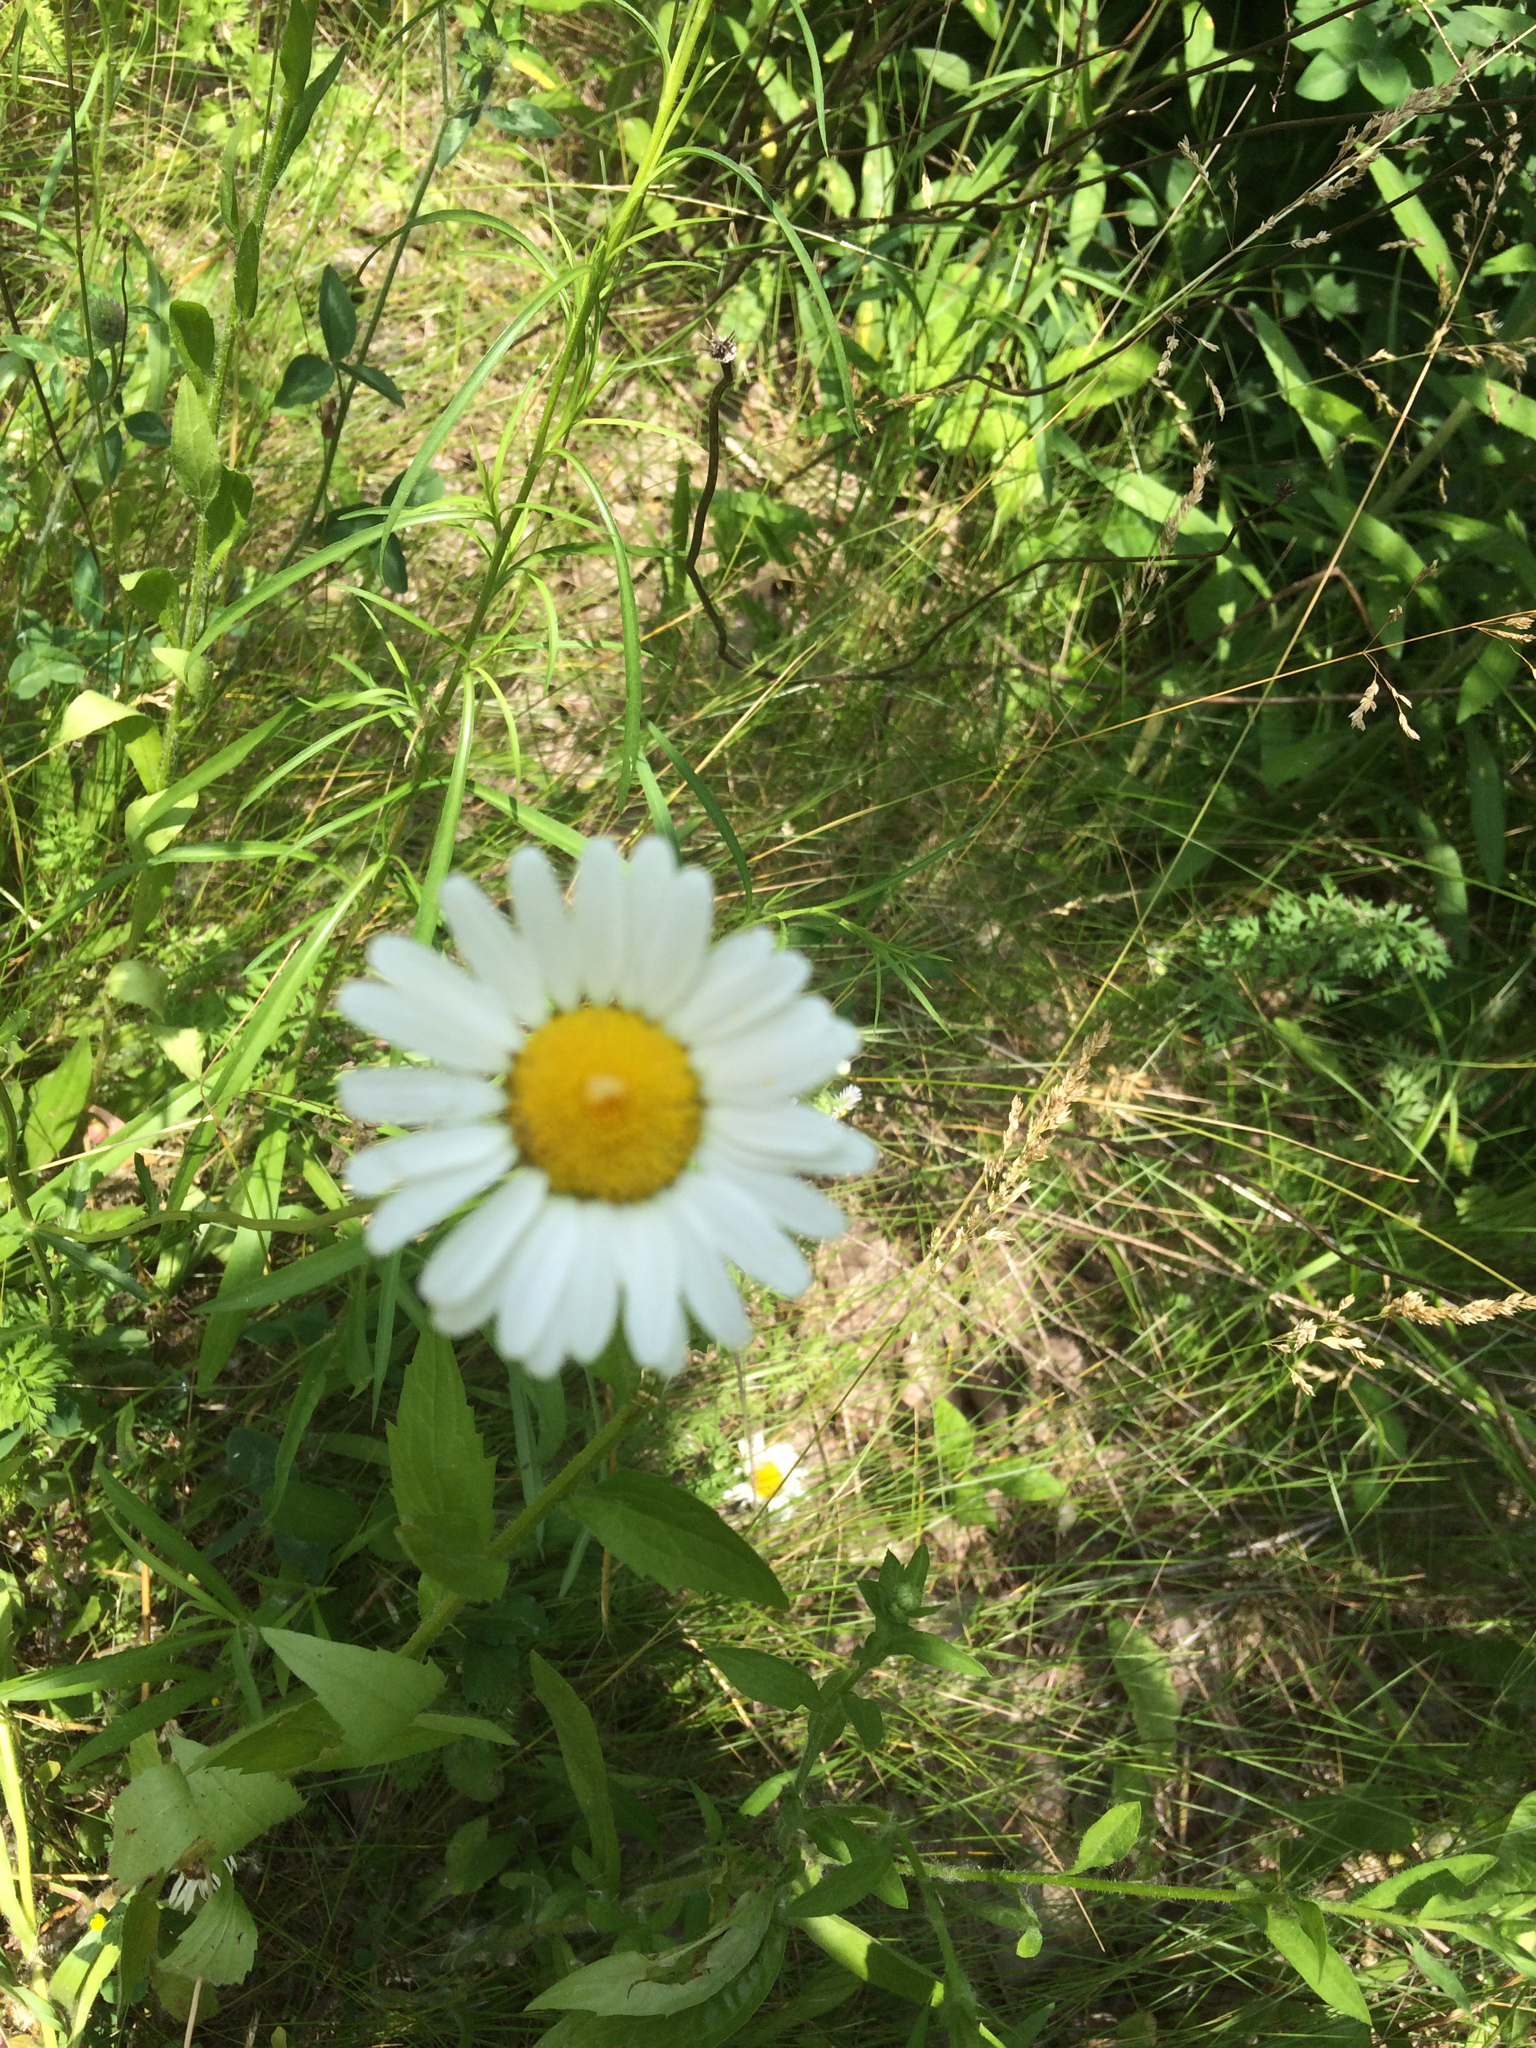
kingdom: Plantae
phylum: Tracheophyta
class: Magnoliopsida
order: Asterales
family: Asteraceae
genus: Leucanthemum
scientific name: Leucanthemum vulgare
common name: Oxeye daisy
